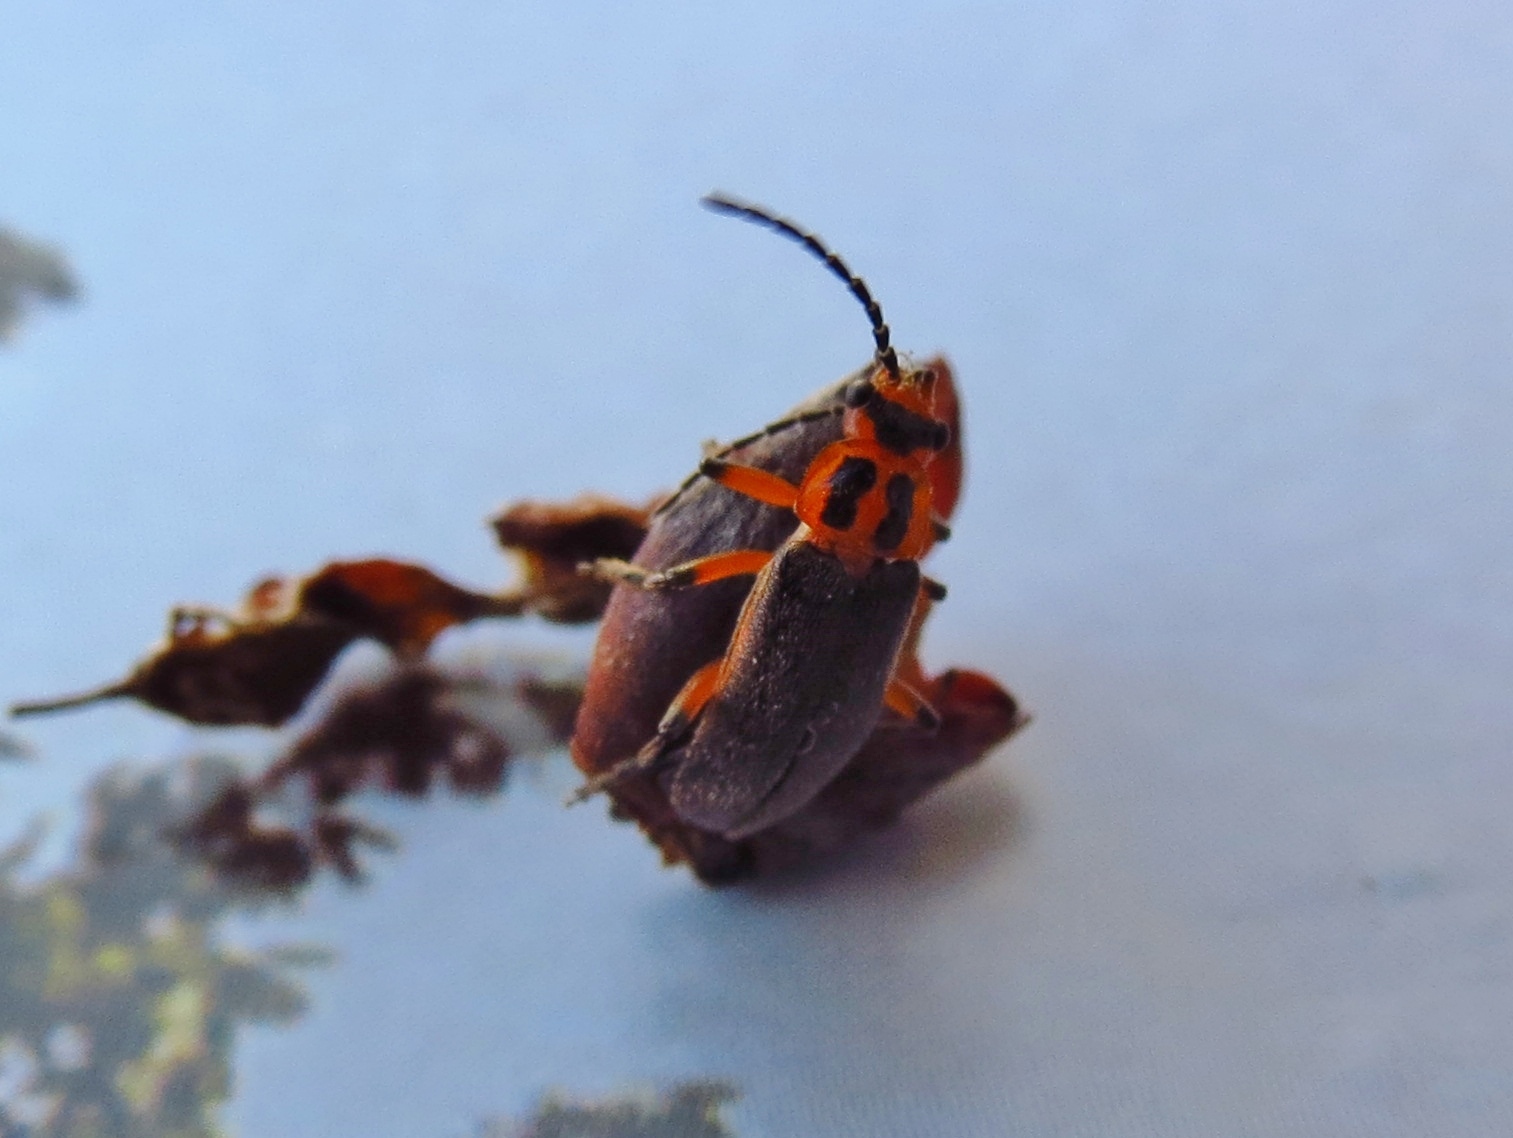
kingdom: Animalia
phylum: Arthropoda
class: Insecta
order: Coleoptera
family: Cantharidae
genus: Atalantycha
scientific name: Atalantycha bilineata
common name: Two-lined leatherwing
